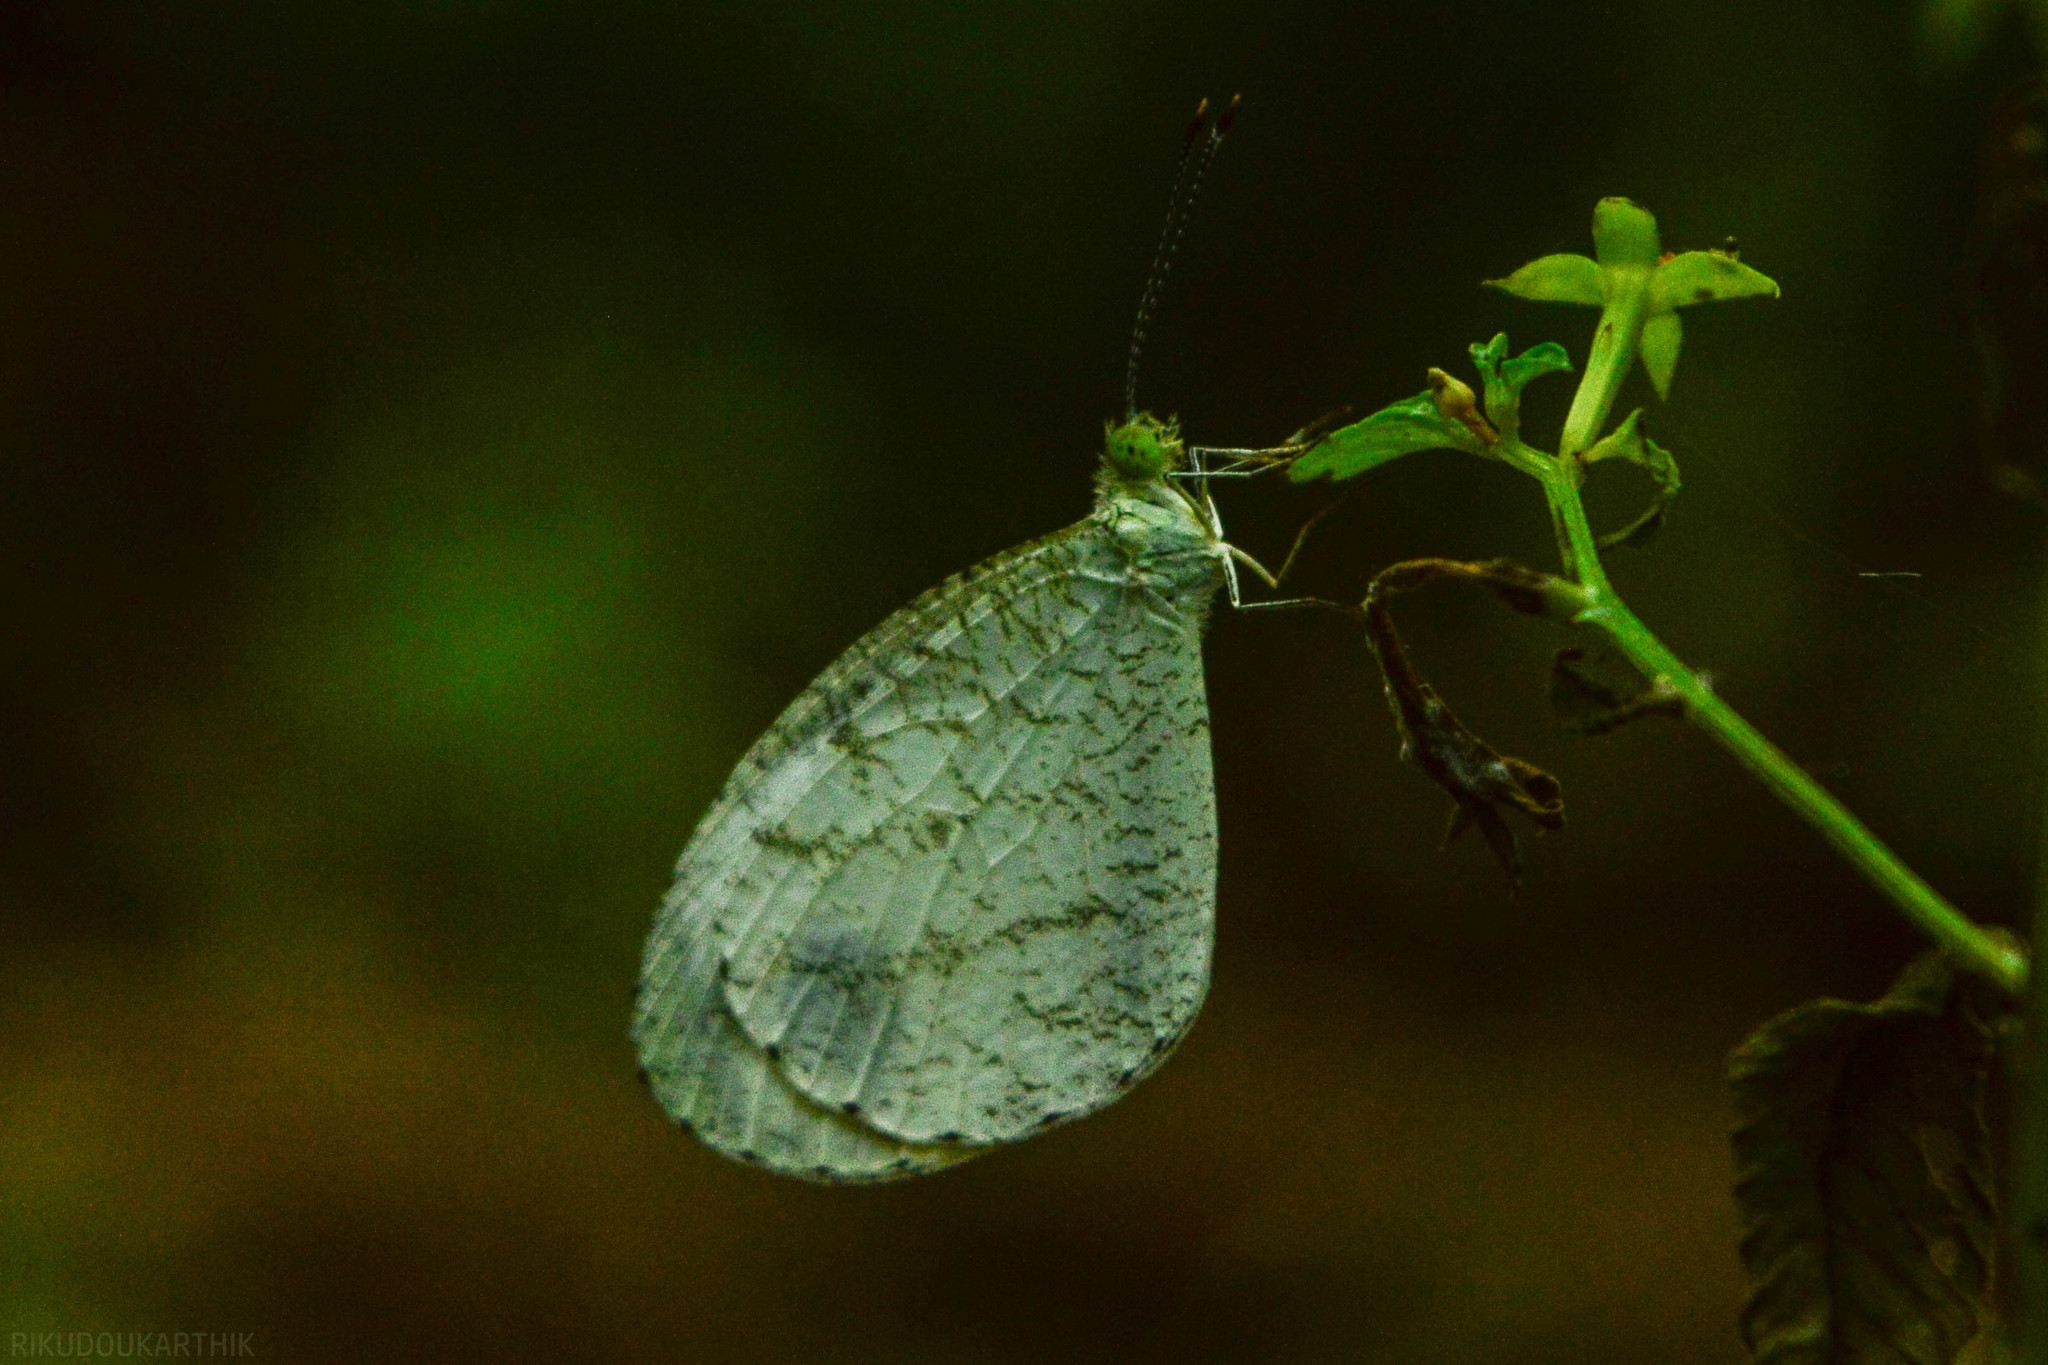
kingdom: Animalia
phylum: Arthropoda
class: Insecta
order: Lepidoptera
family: Pieridae
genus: Leptosia
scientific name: Leptosia nina
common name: Psyche
